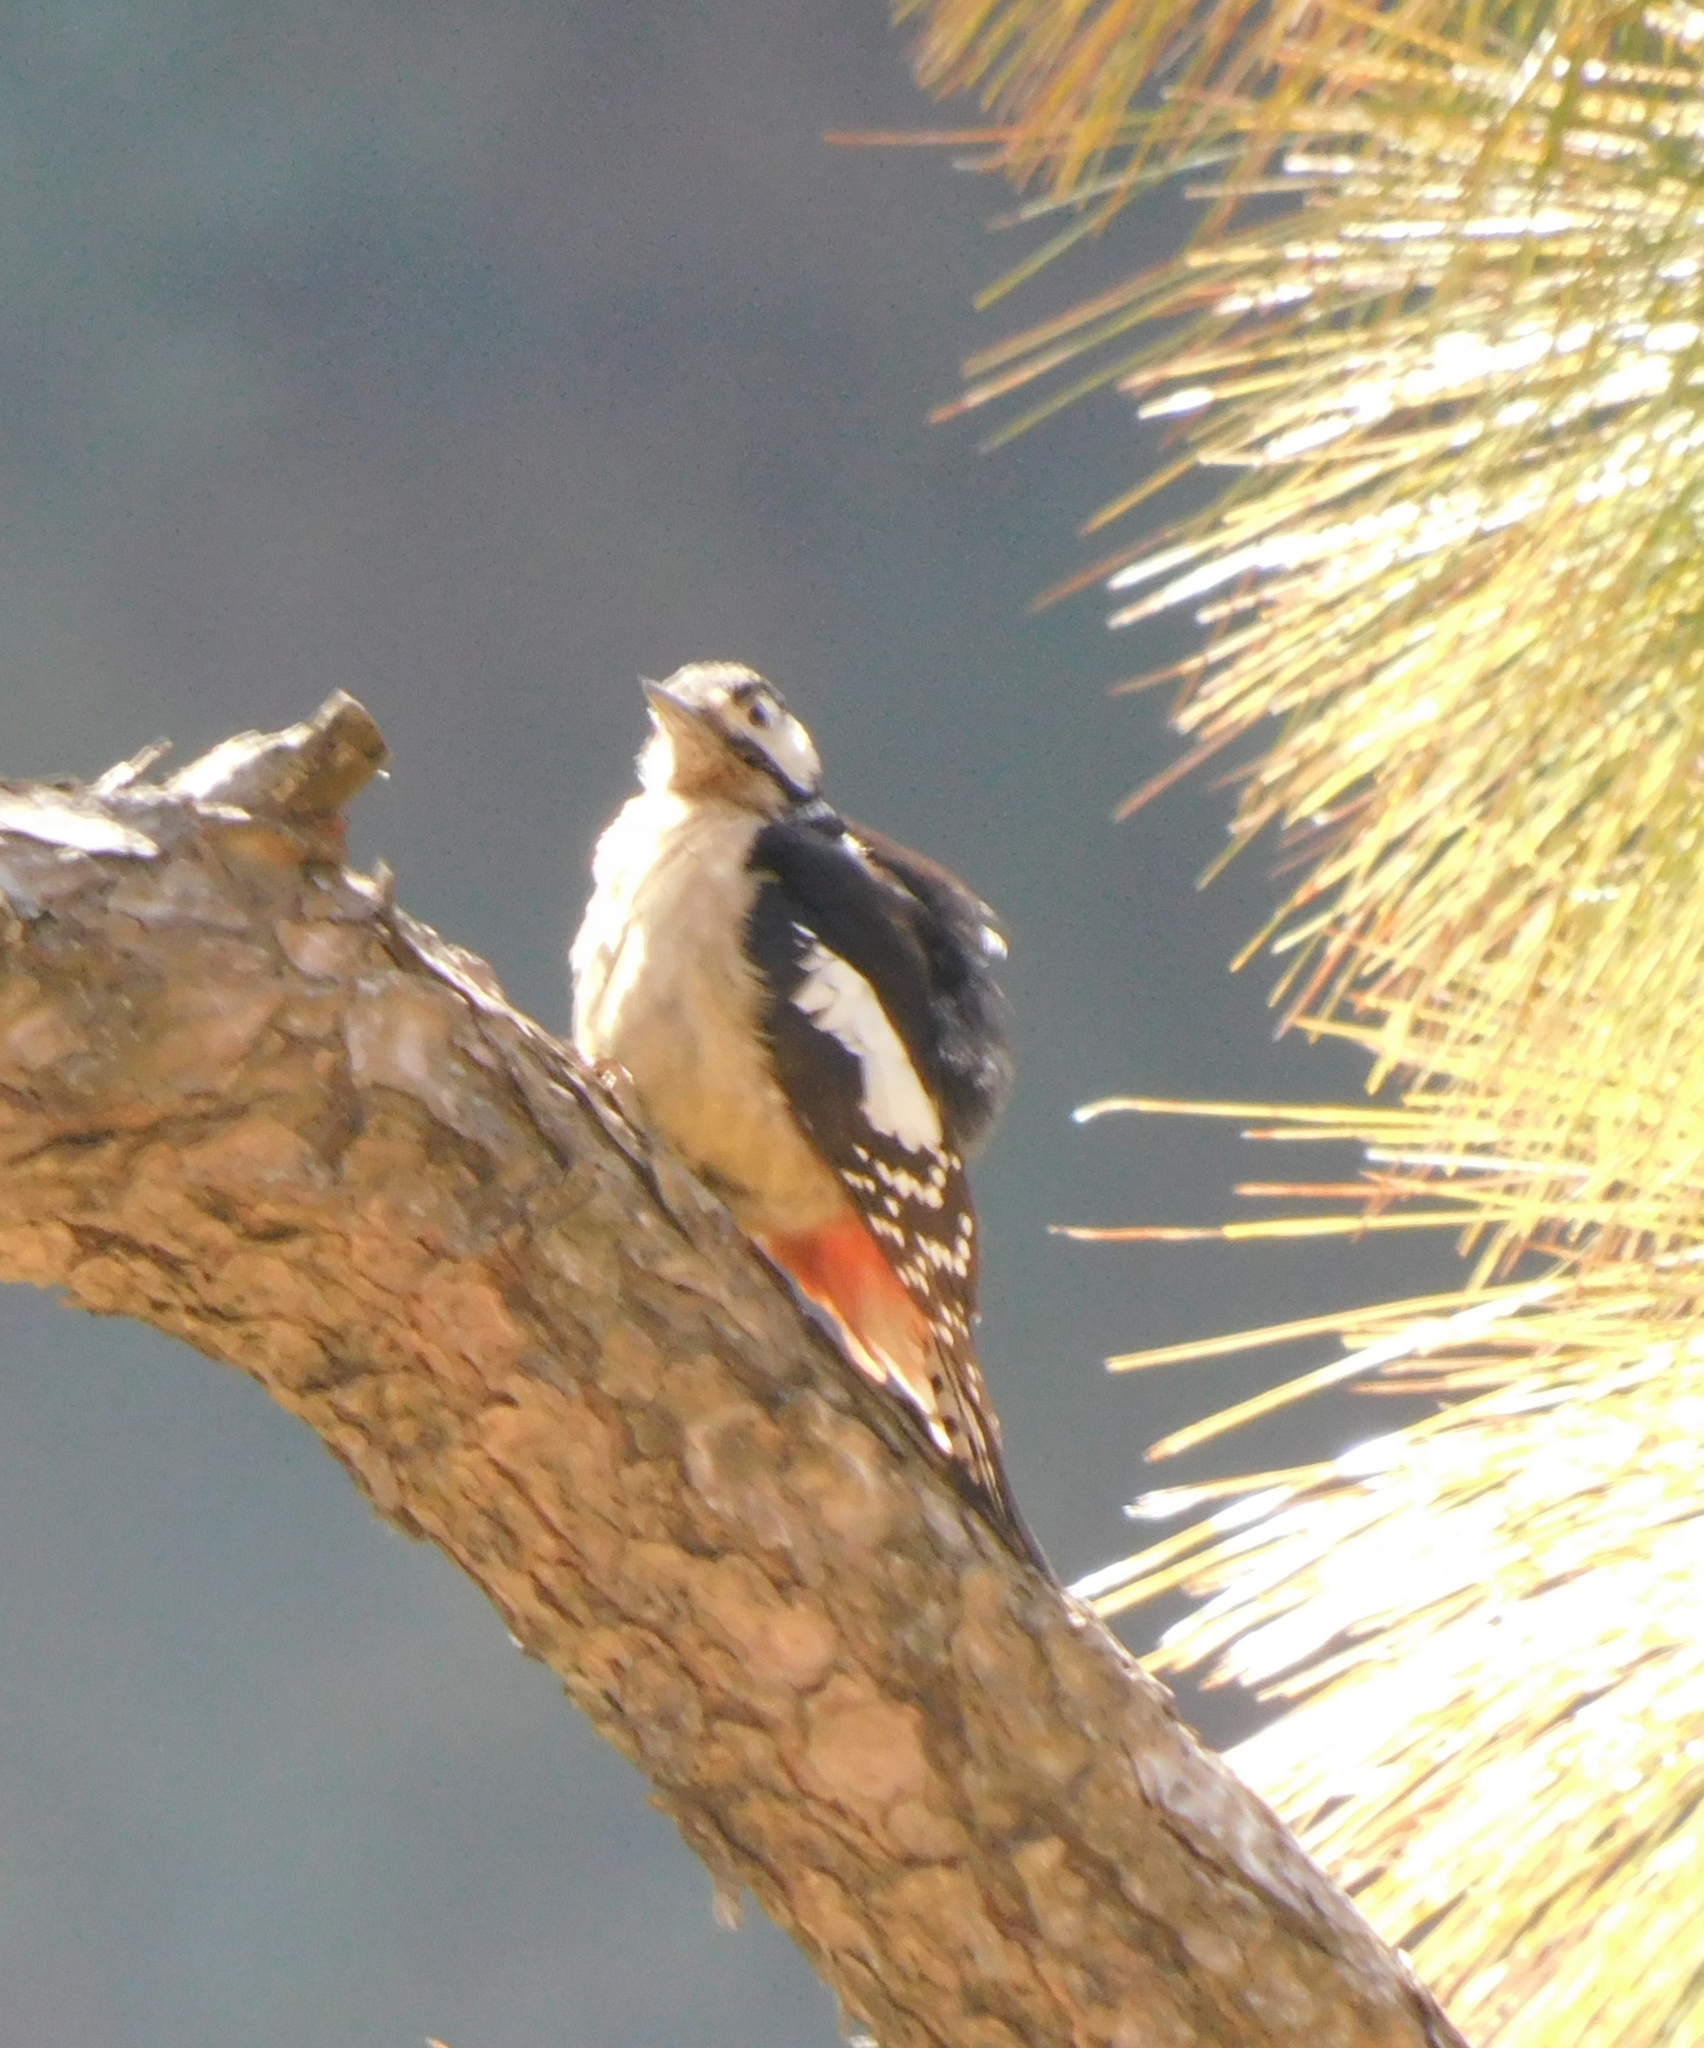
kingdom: Animalia
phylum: Chordata
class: Aves
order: Piciformes
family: Picidae
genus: Dendrocopos
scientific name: Dendrocopos himalayensis
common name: Himalayan woodpecker
